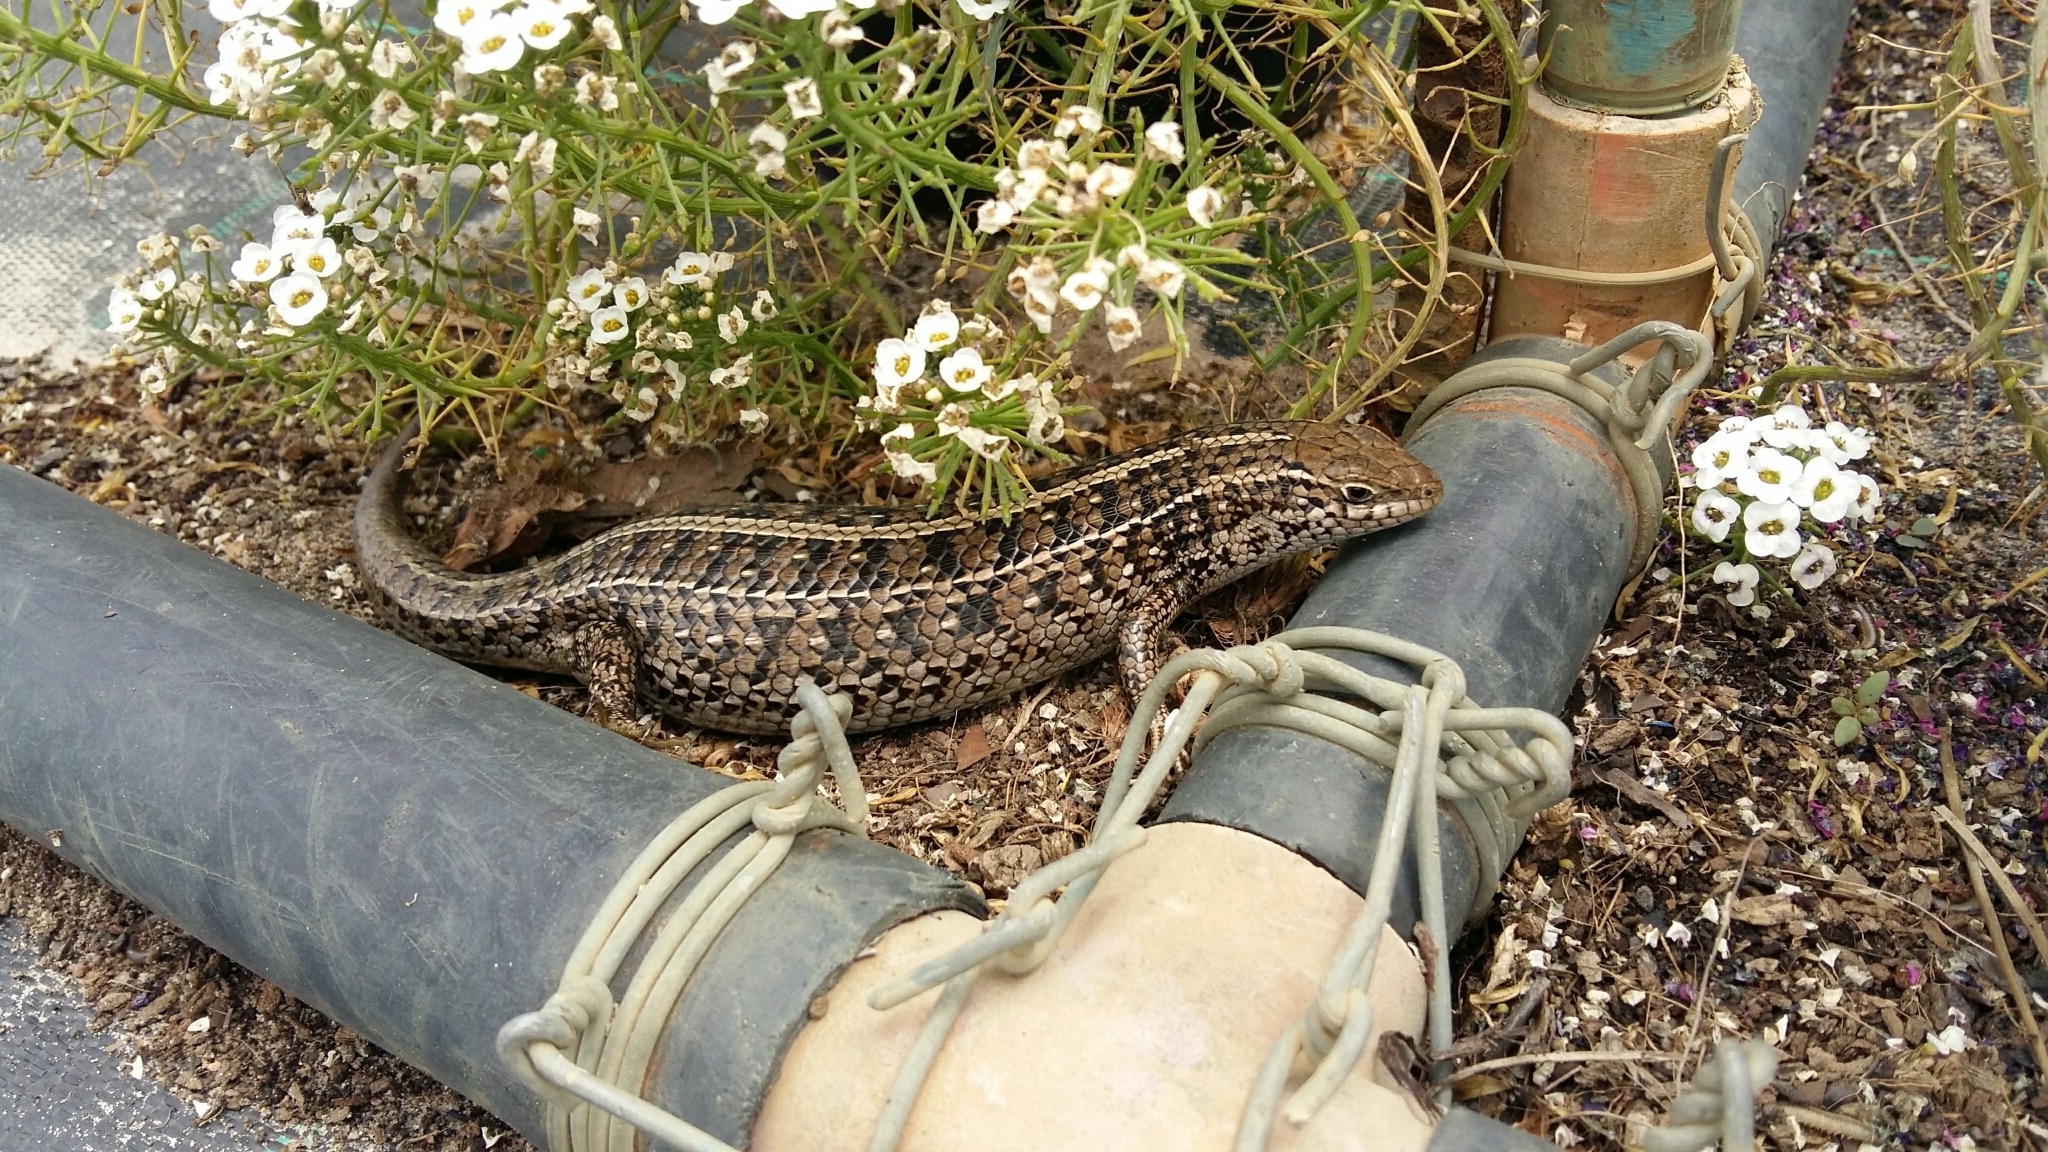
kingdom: Animalia
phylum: Chordata
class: Squamata
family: Scincidae
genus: Trachylepis
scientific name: Trachylepis capensis
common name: Cape skink
